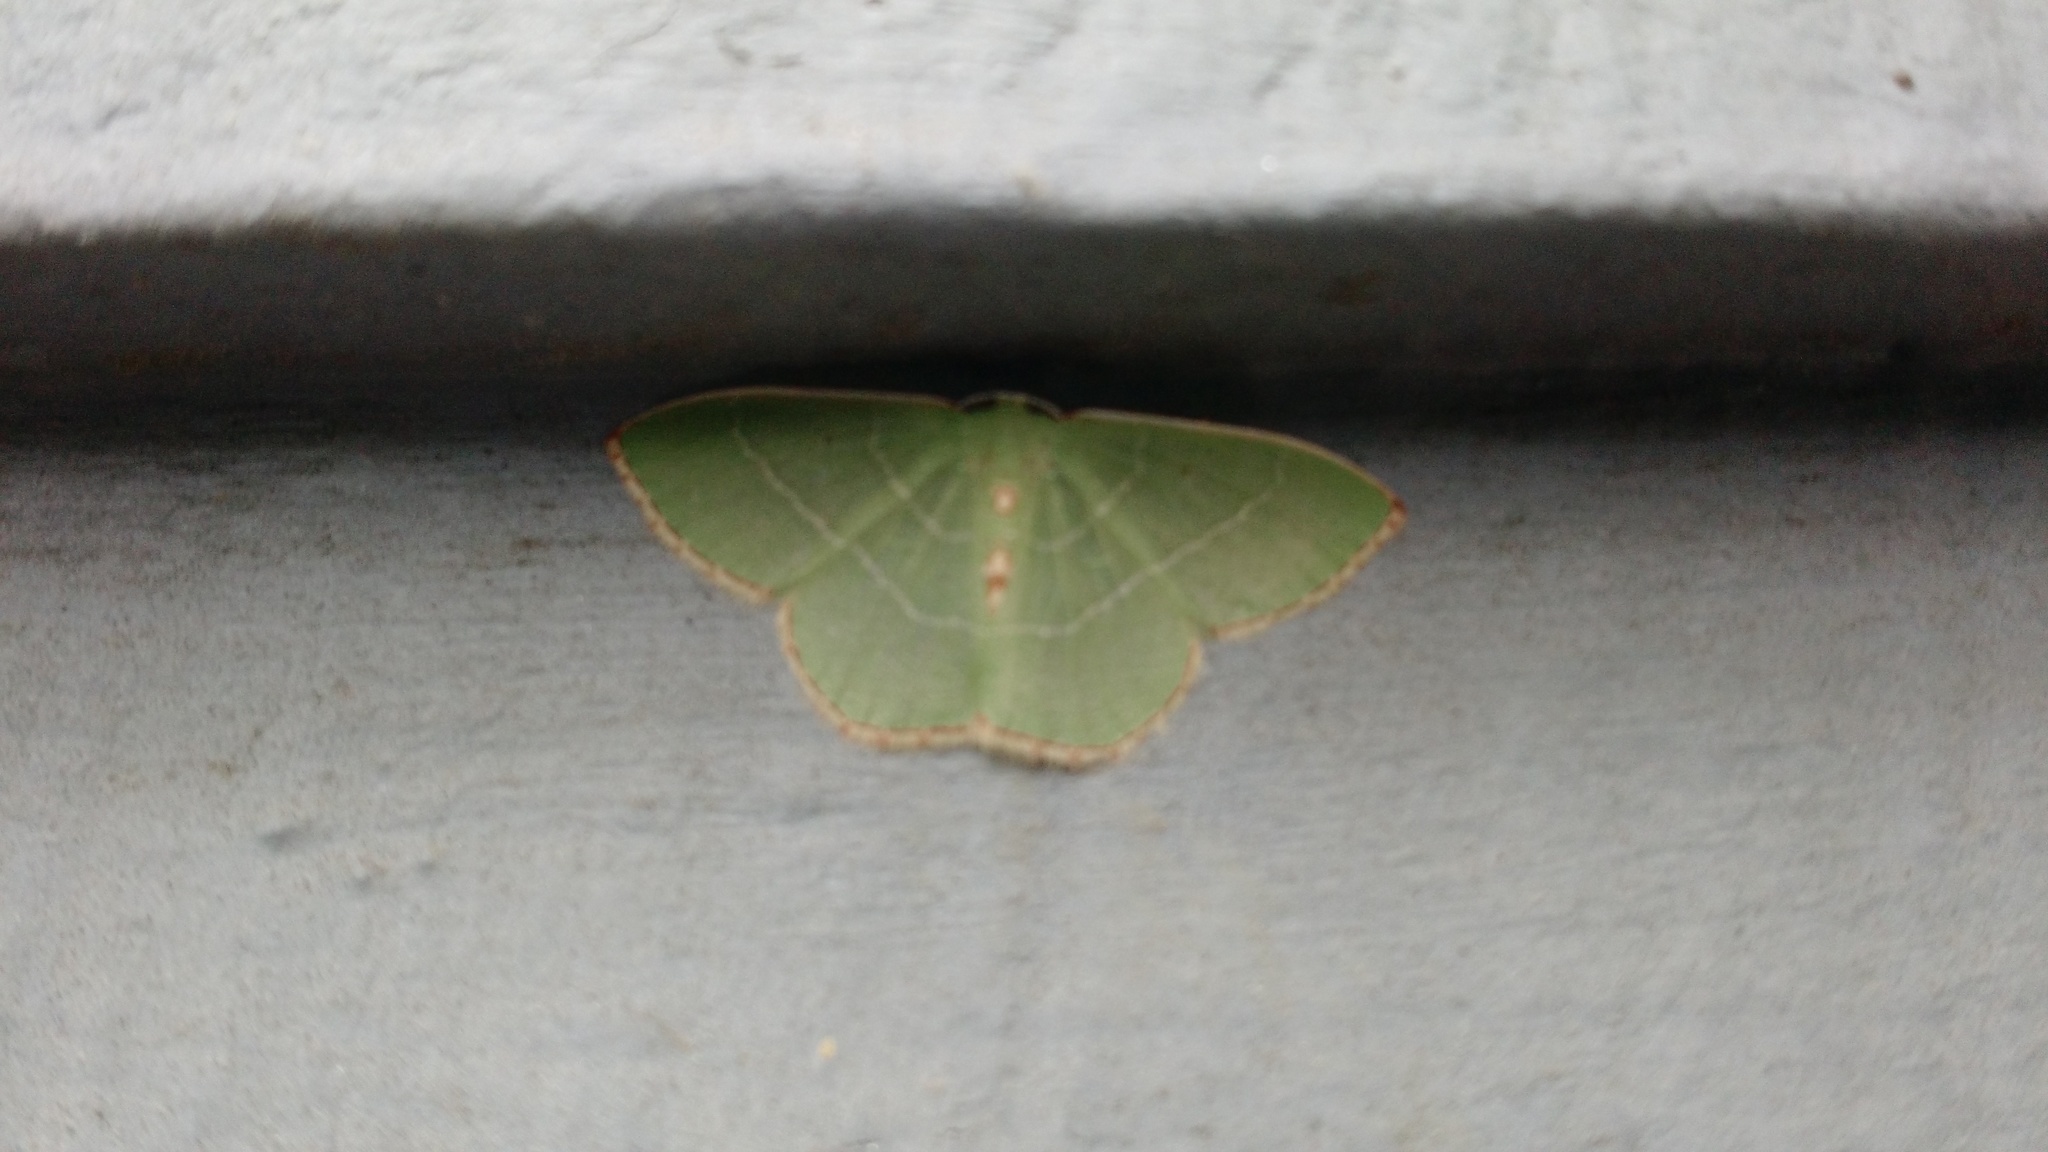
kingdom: Animalia
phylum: Arthropoda
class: Insecta
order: Lepidoptera
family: Geometridae
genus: Nemoria
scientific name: Nemoria bistriaria
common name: Red-fringed emerald
